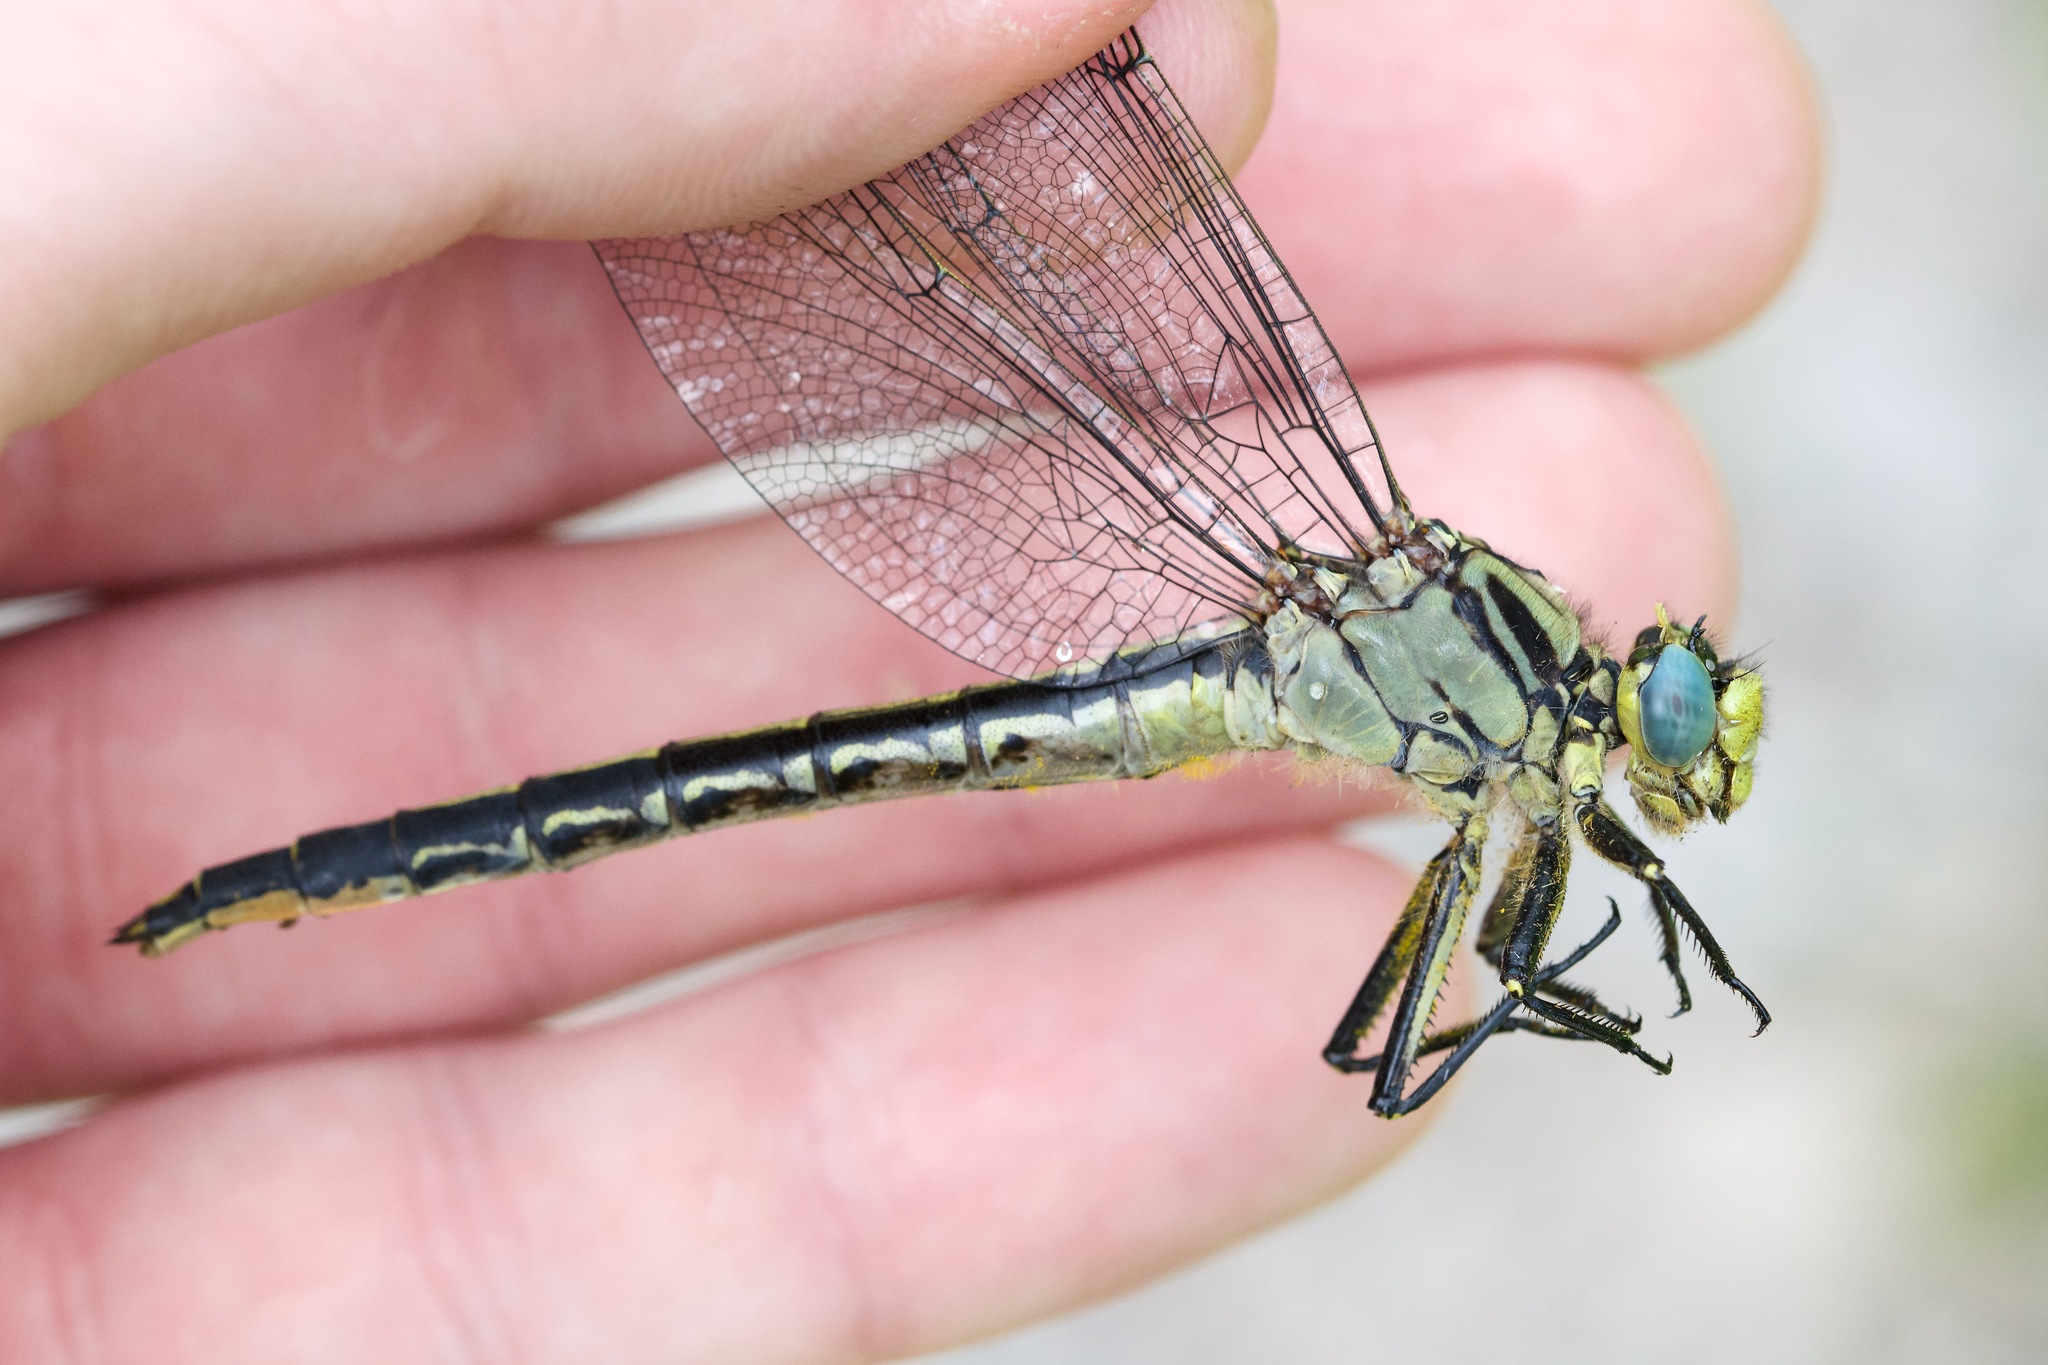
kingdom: Animalia
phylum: Arthropoda
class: Insecta
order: Odonata
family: Gomphidae
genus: Arigomphus
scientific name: Arigomphus cornutus
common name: Horned clubtail
